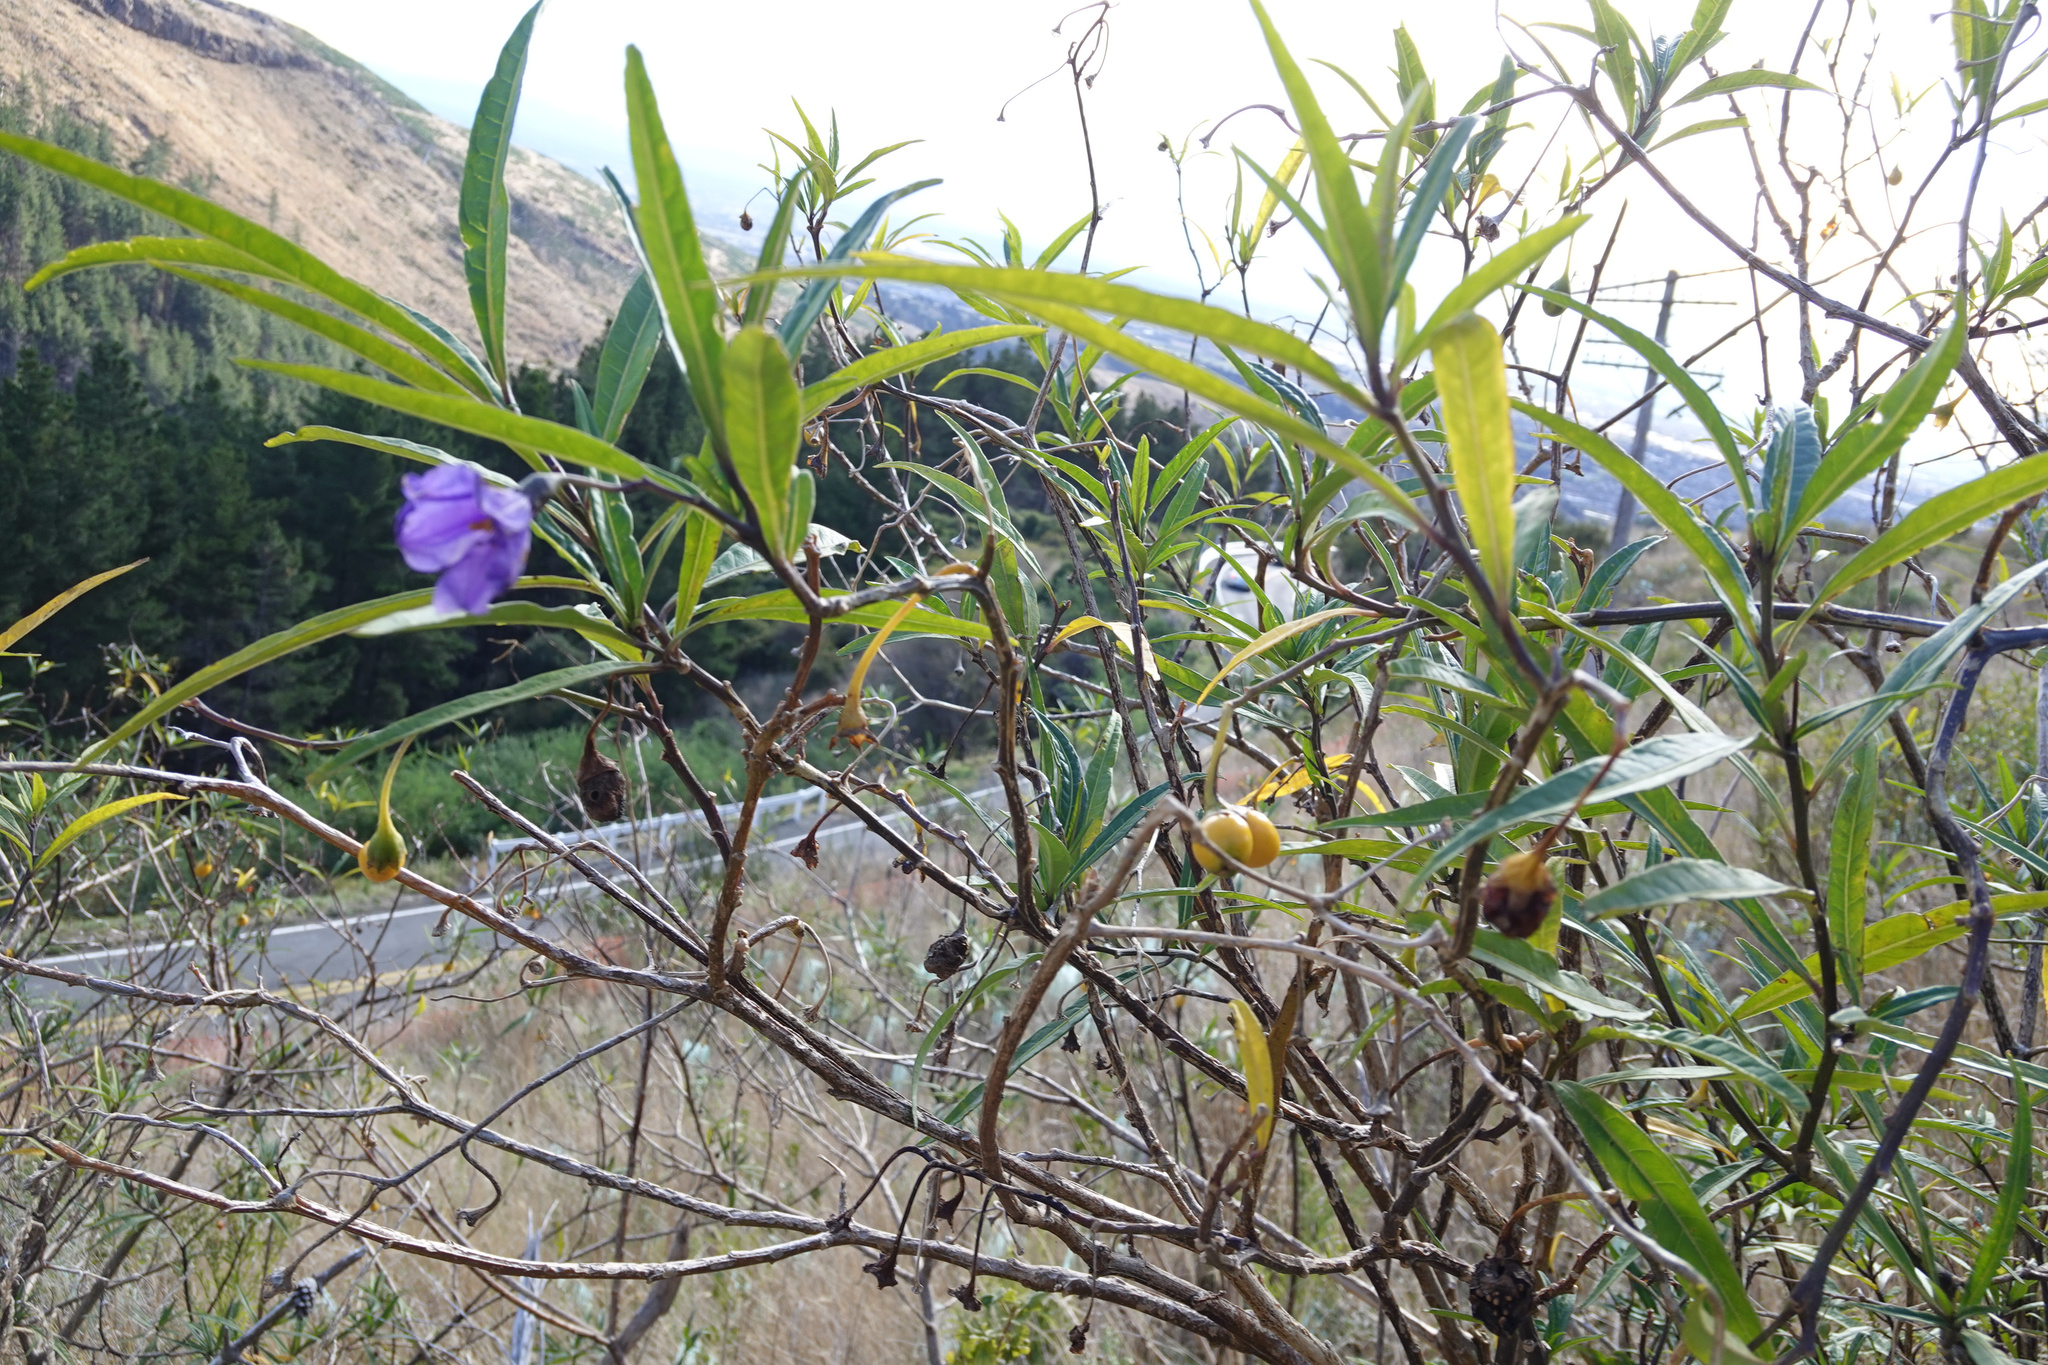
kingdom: Plantae
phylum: Tracheophyta
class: Magnoliopsida
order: Solanales
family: Solanaceae
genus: Solanum
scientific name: Solanum laciniatum
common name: Kangaroo-apple
